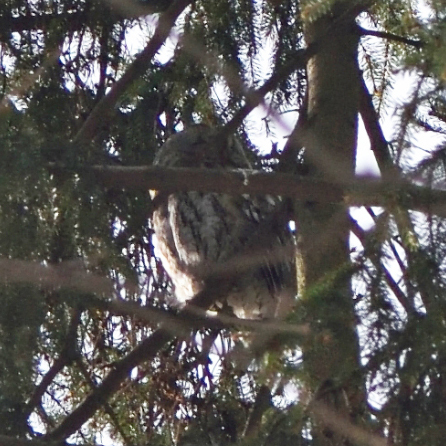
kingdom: Animalia
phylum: Chordata
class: Aves
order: Strigiformes
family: Strigidae
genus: Strix
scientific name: Strix aluco
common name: Tawny owl
